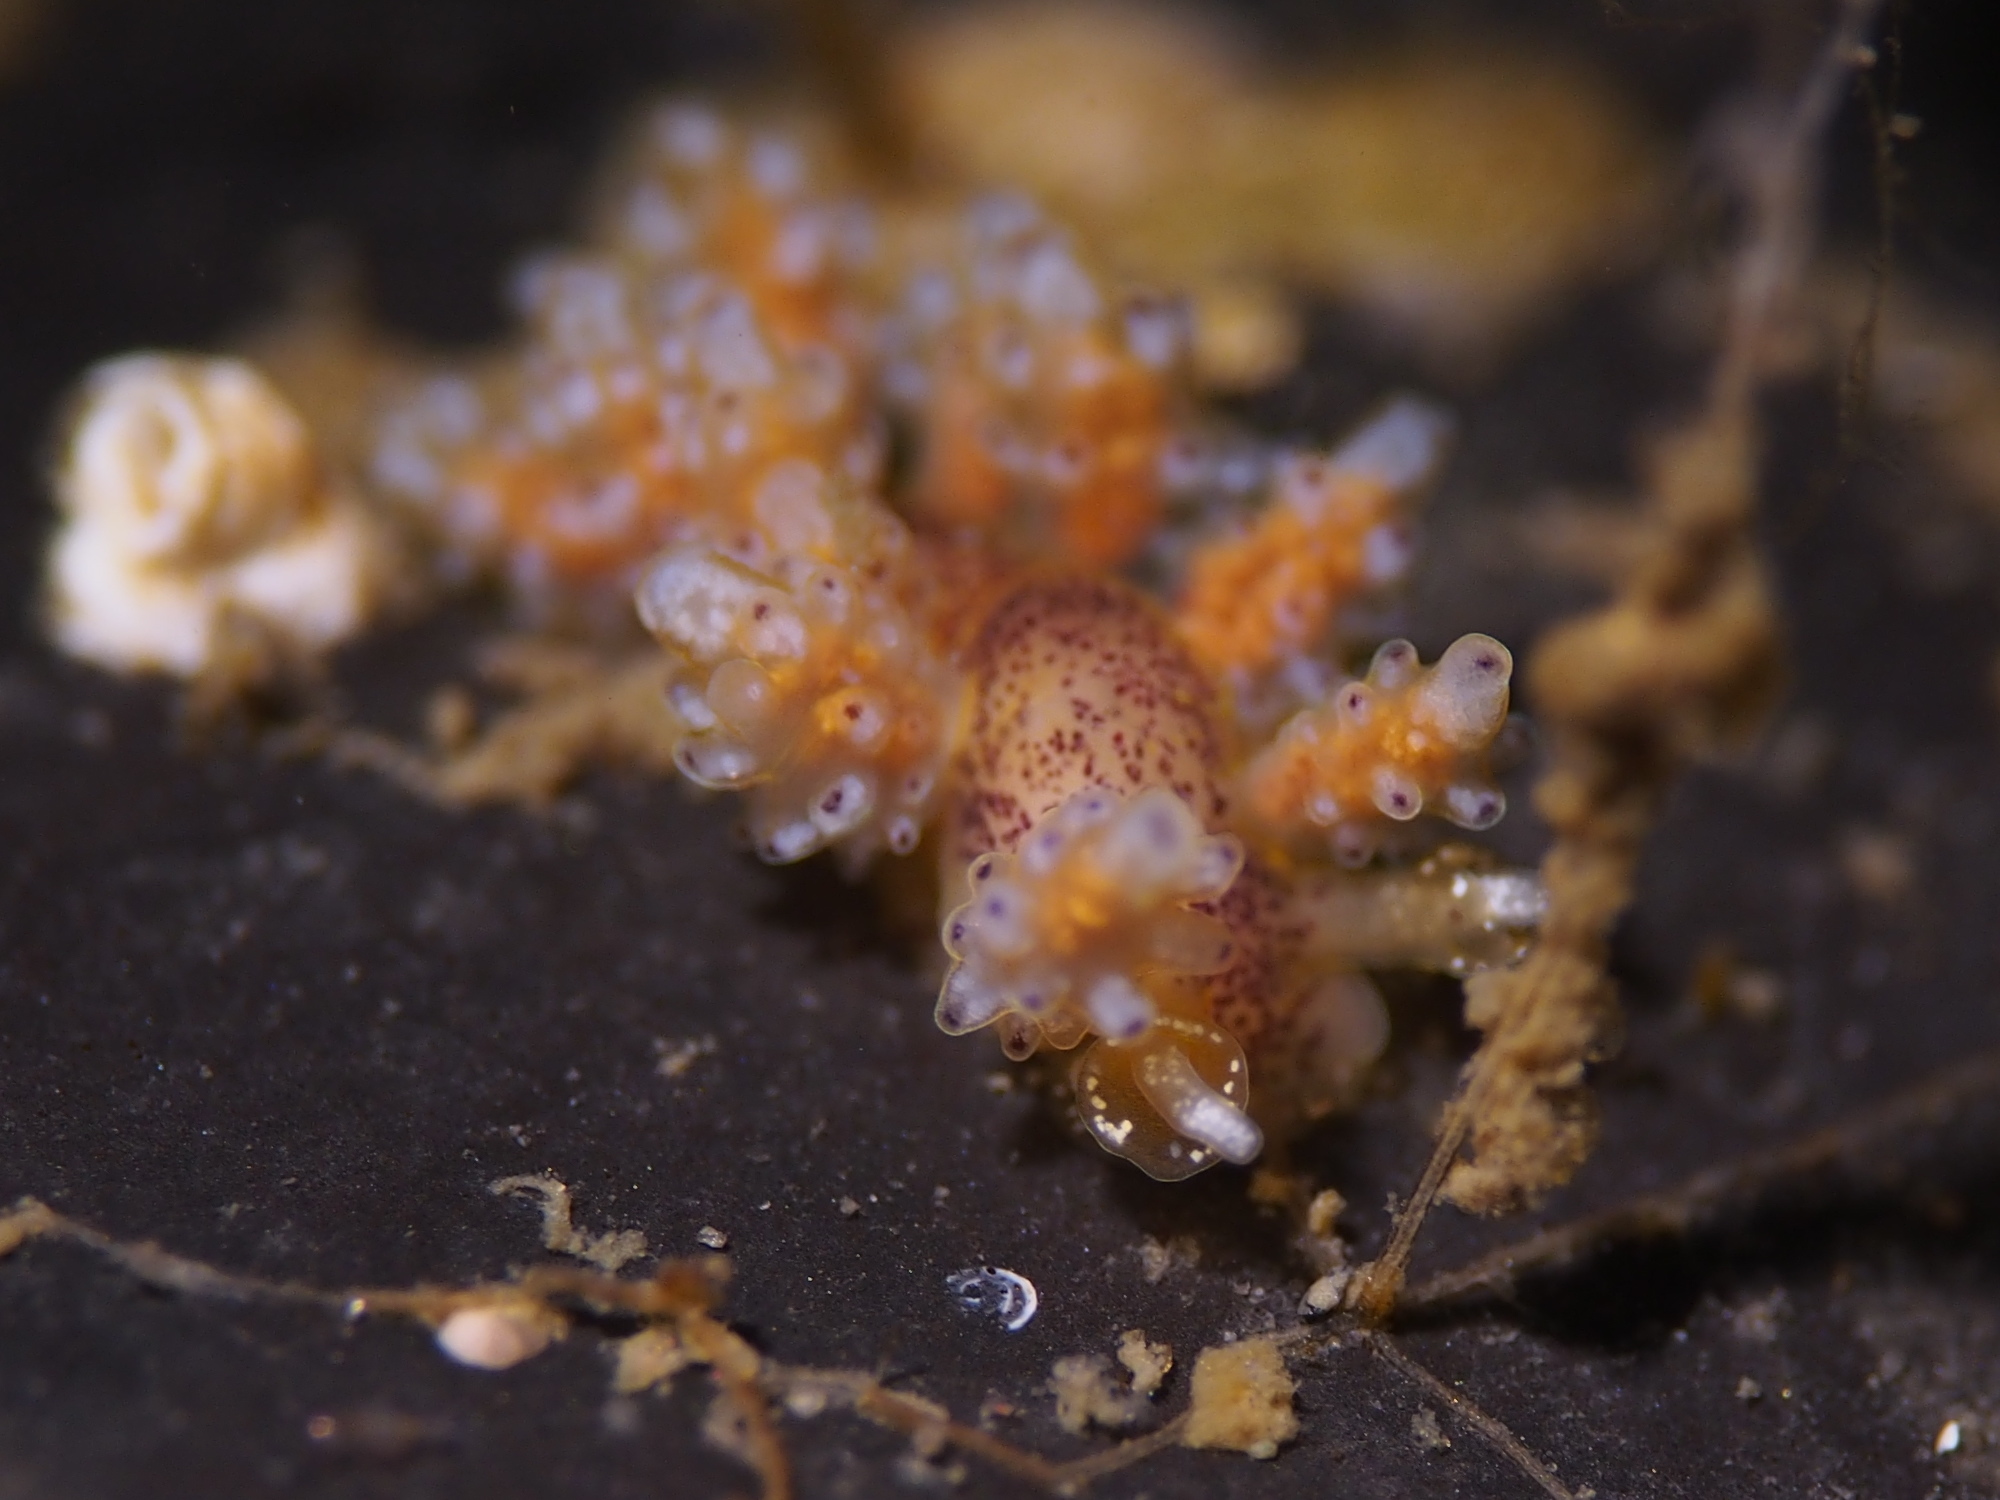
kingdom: Animalia
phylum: Mollusca
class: Gastropoda
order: Nudibranchia
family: Dotidae
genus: Doto
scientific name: Doto maculata
